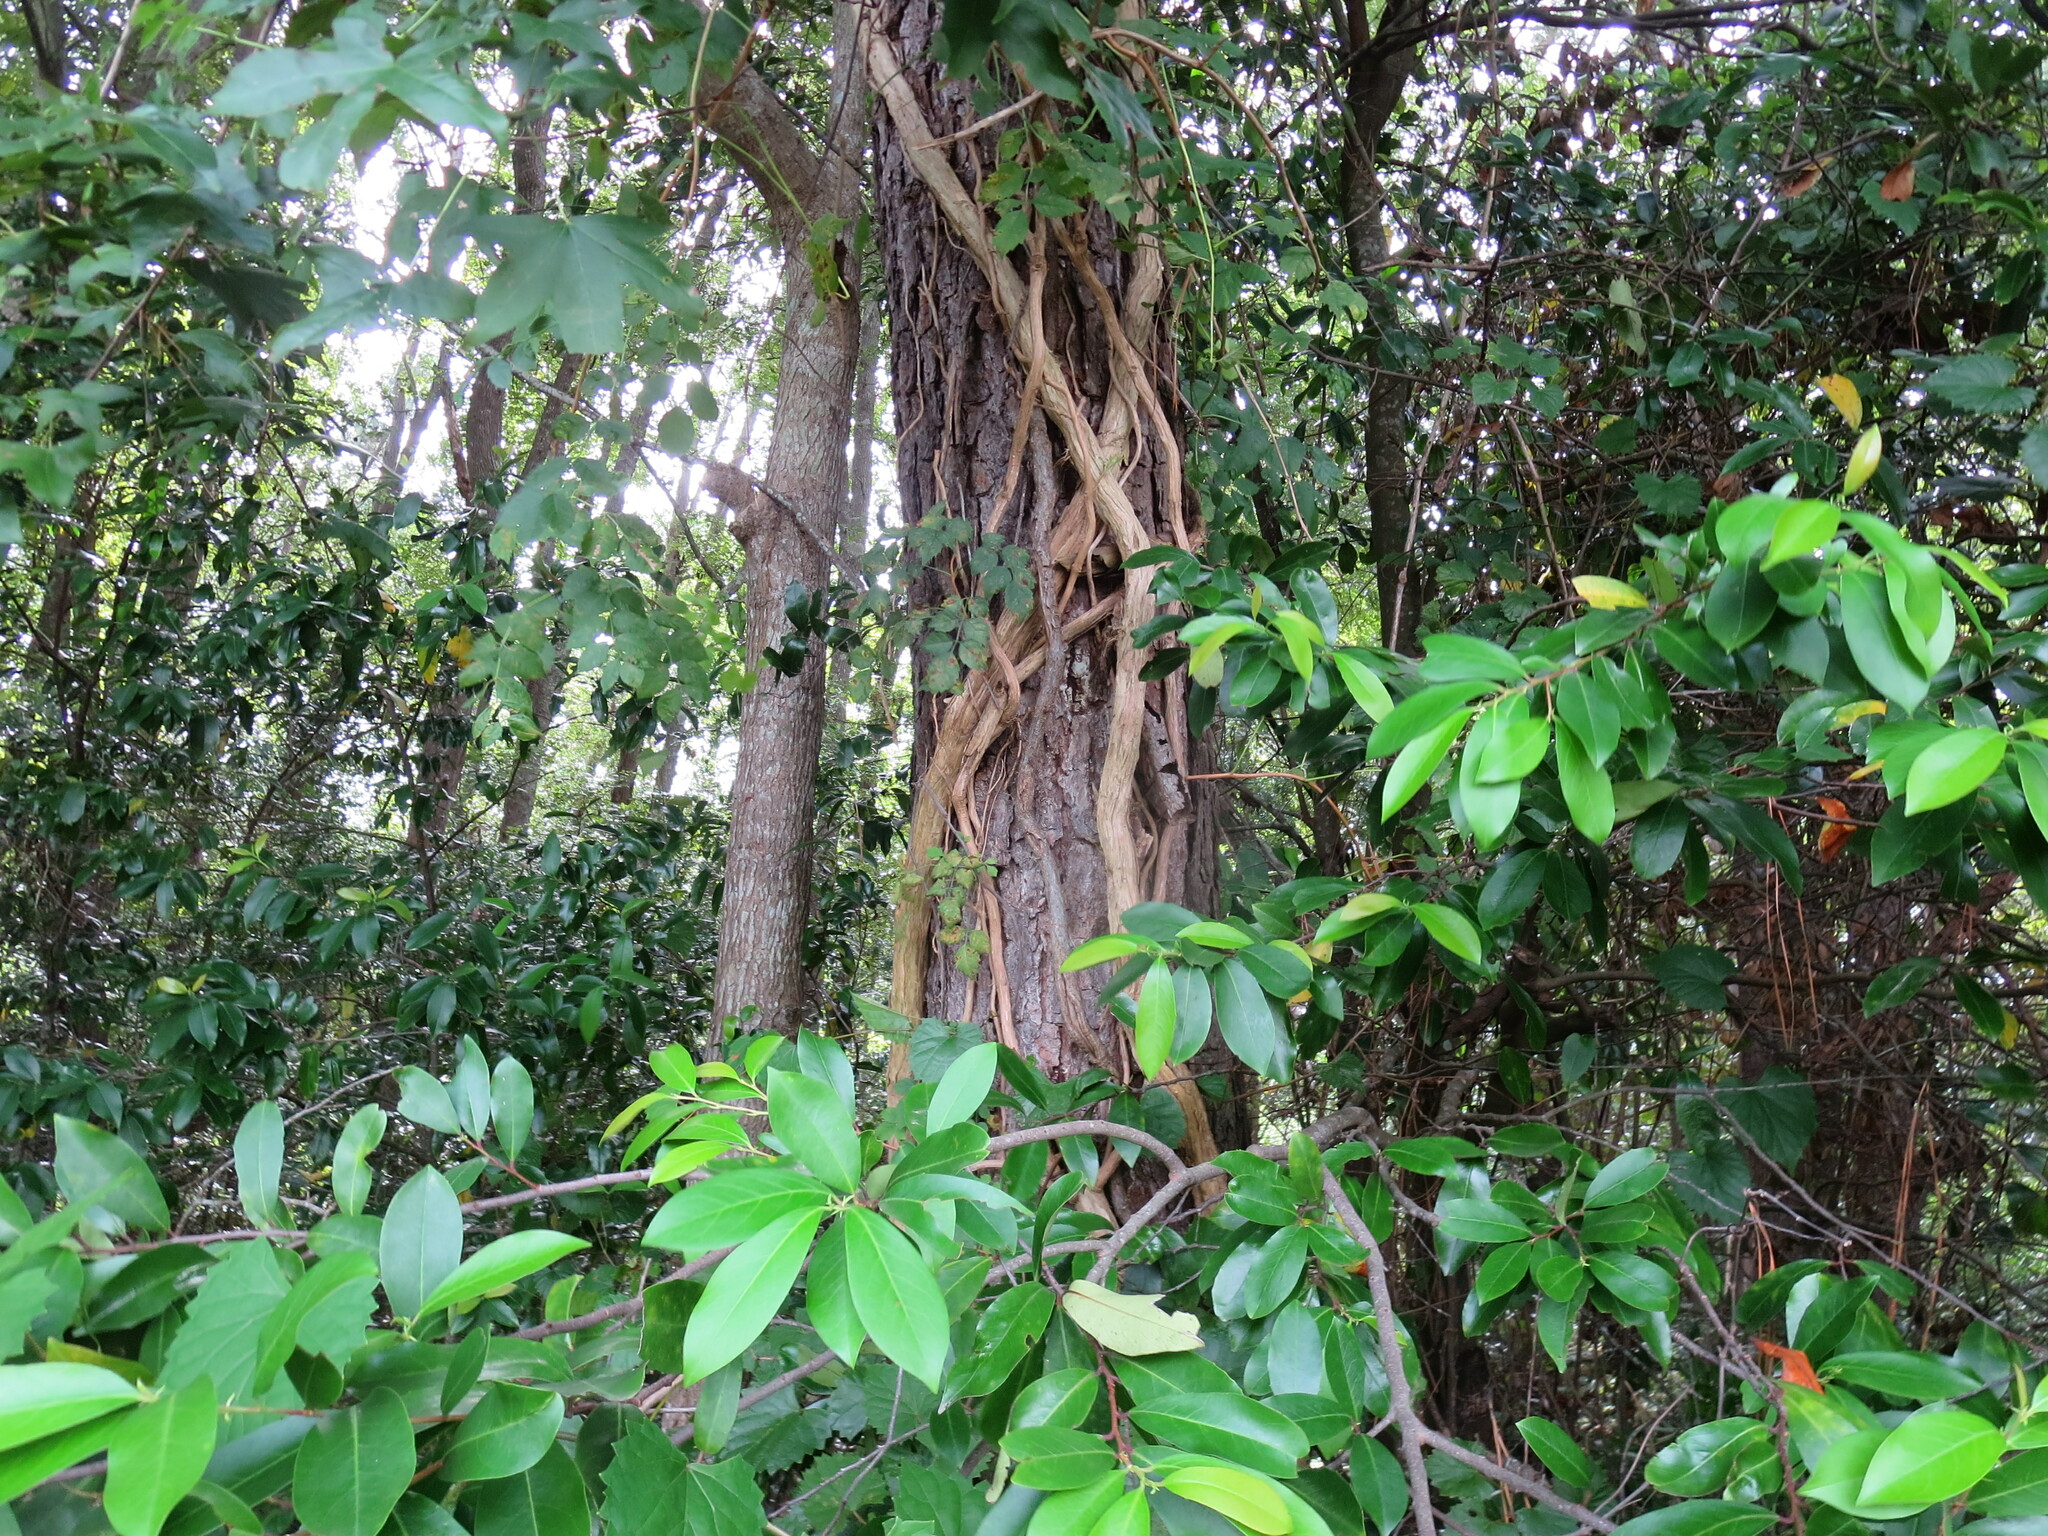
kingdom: Plantae
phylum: Tracheophyta
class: Magnoliopsida
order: Lamiales
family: Bignoniaceae
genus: Campsis
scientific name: Campsis radicans
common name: Trumpet-creeper
